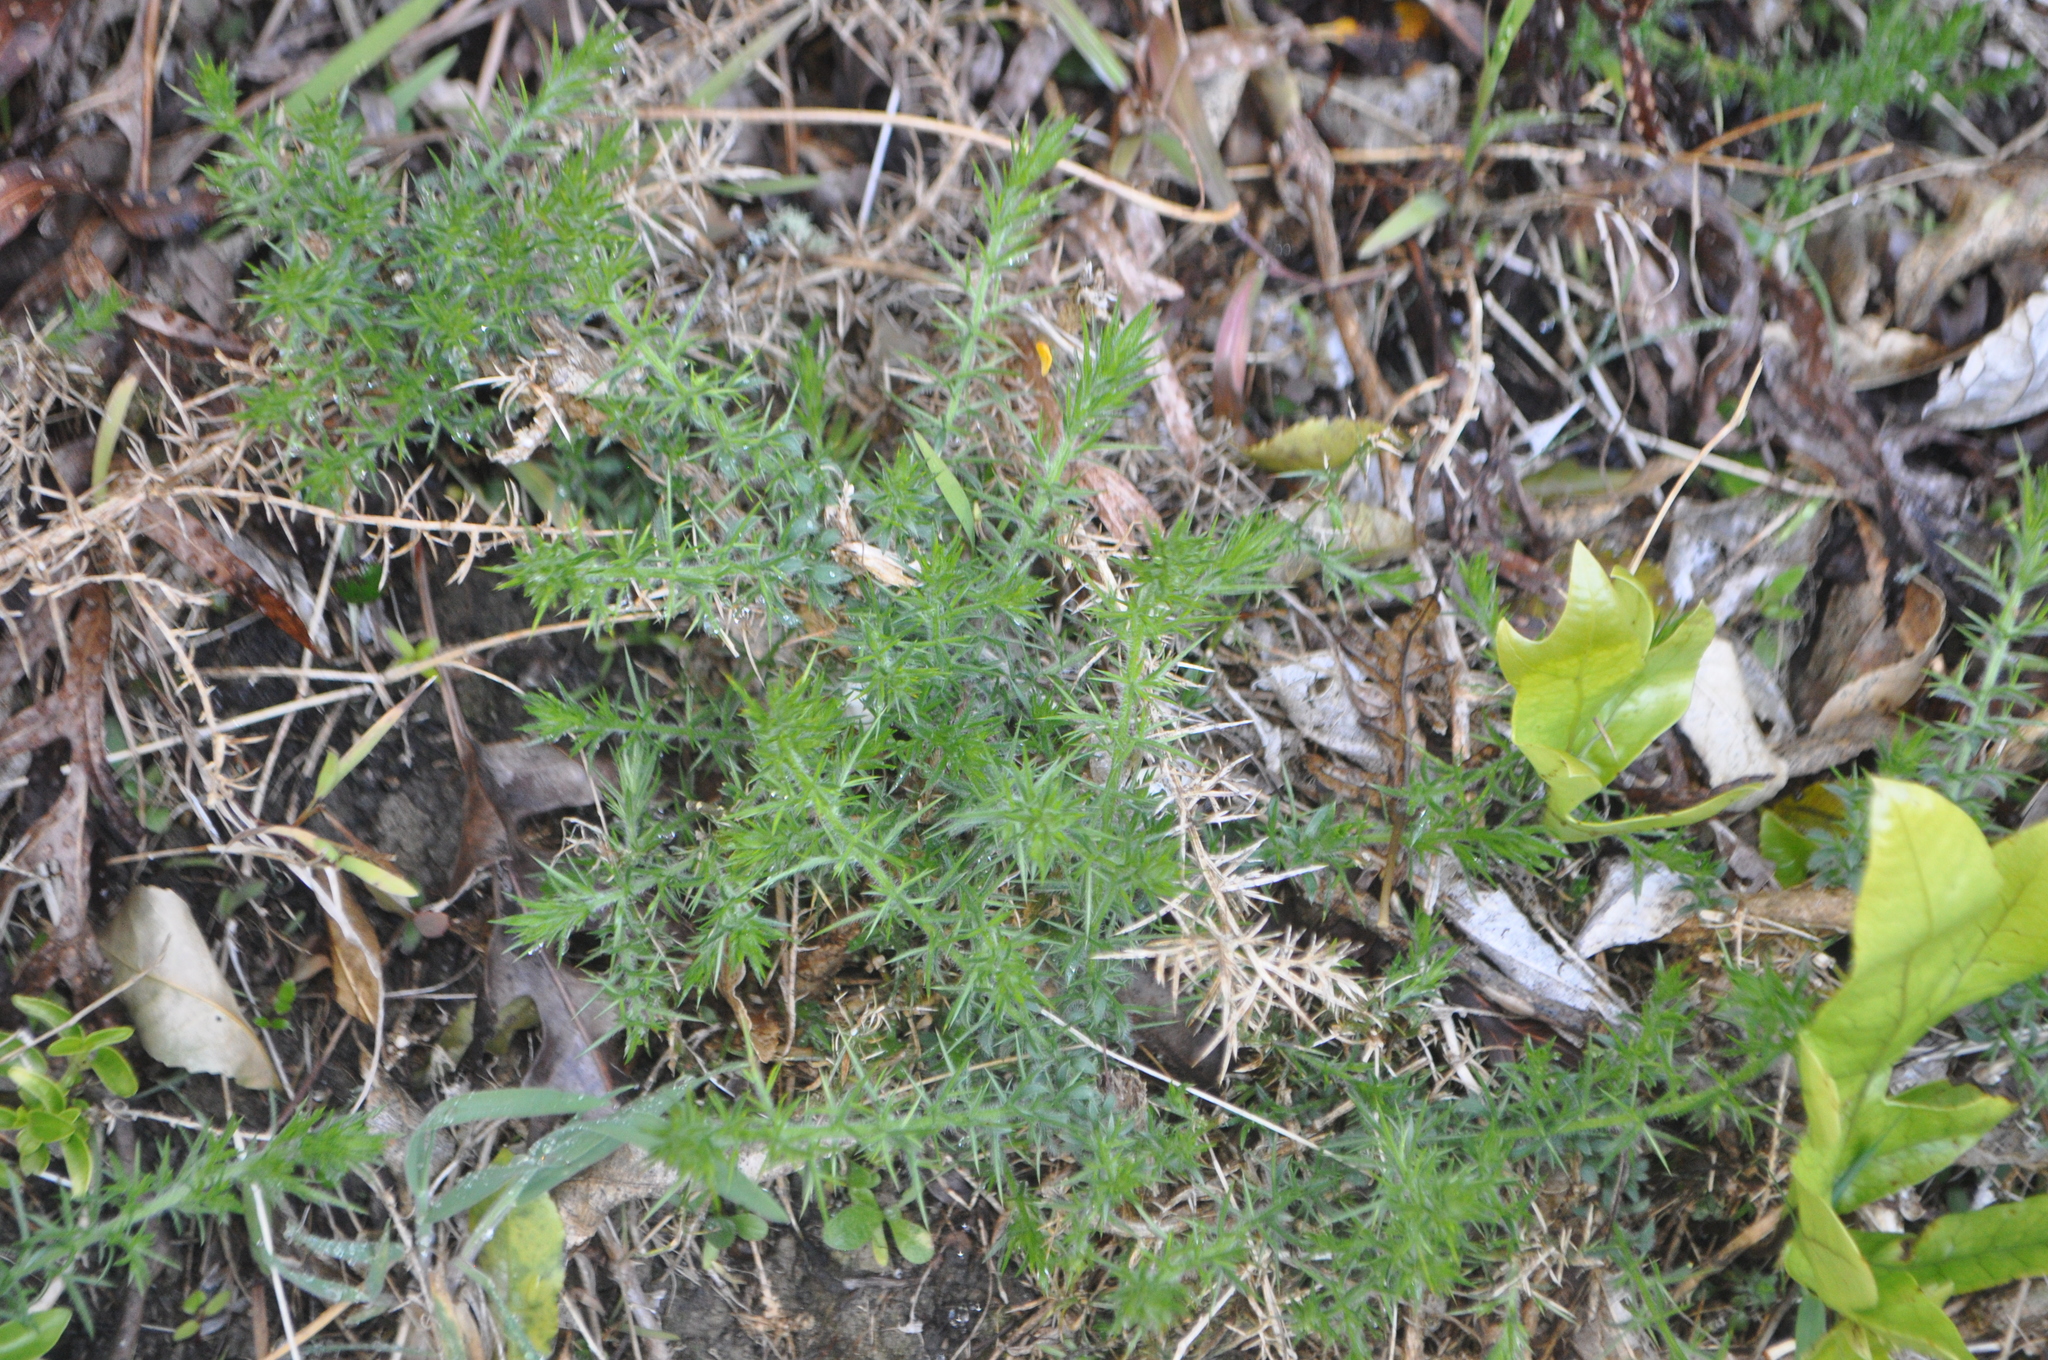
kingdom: Plantae
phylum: Tracheophyta
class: Magnoliopsida
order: Fabales
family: Fabaceae
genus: Ulex
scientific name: Ulex europaeus
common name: Common gorse
